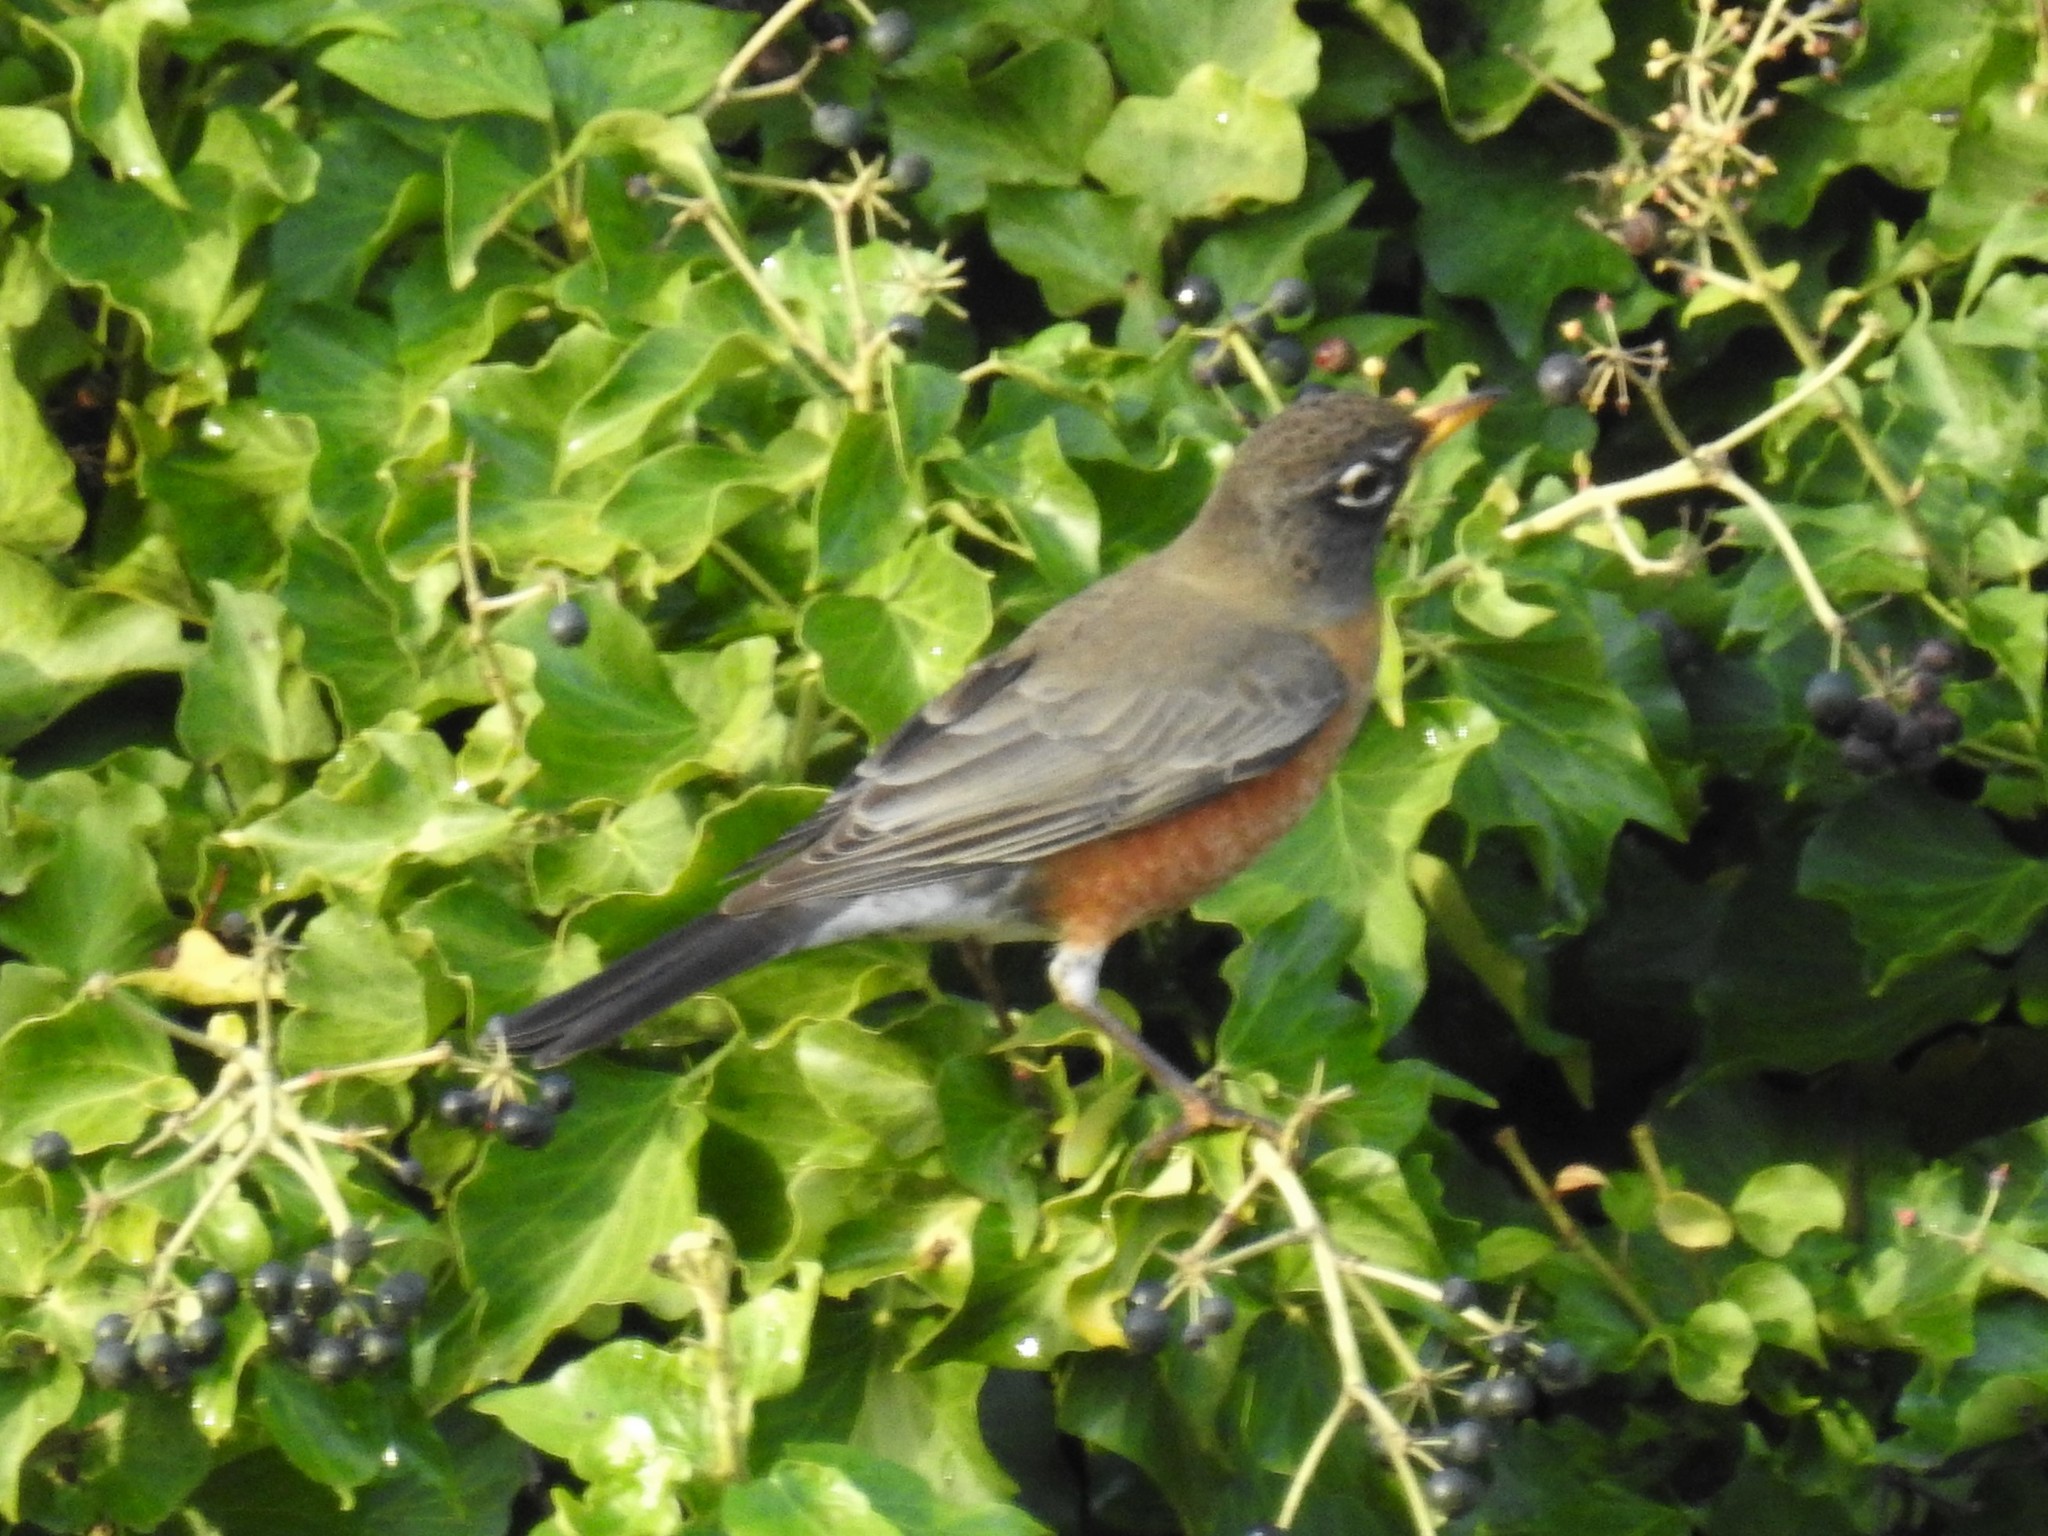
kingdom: Animalia
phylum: Chordata
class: Aves
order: Passeriformes
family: Turdidae
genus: Turdus
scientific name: Turdus migratorius
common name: American robin
